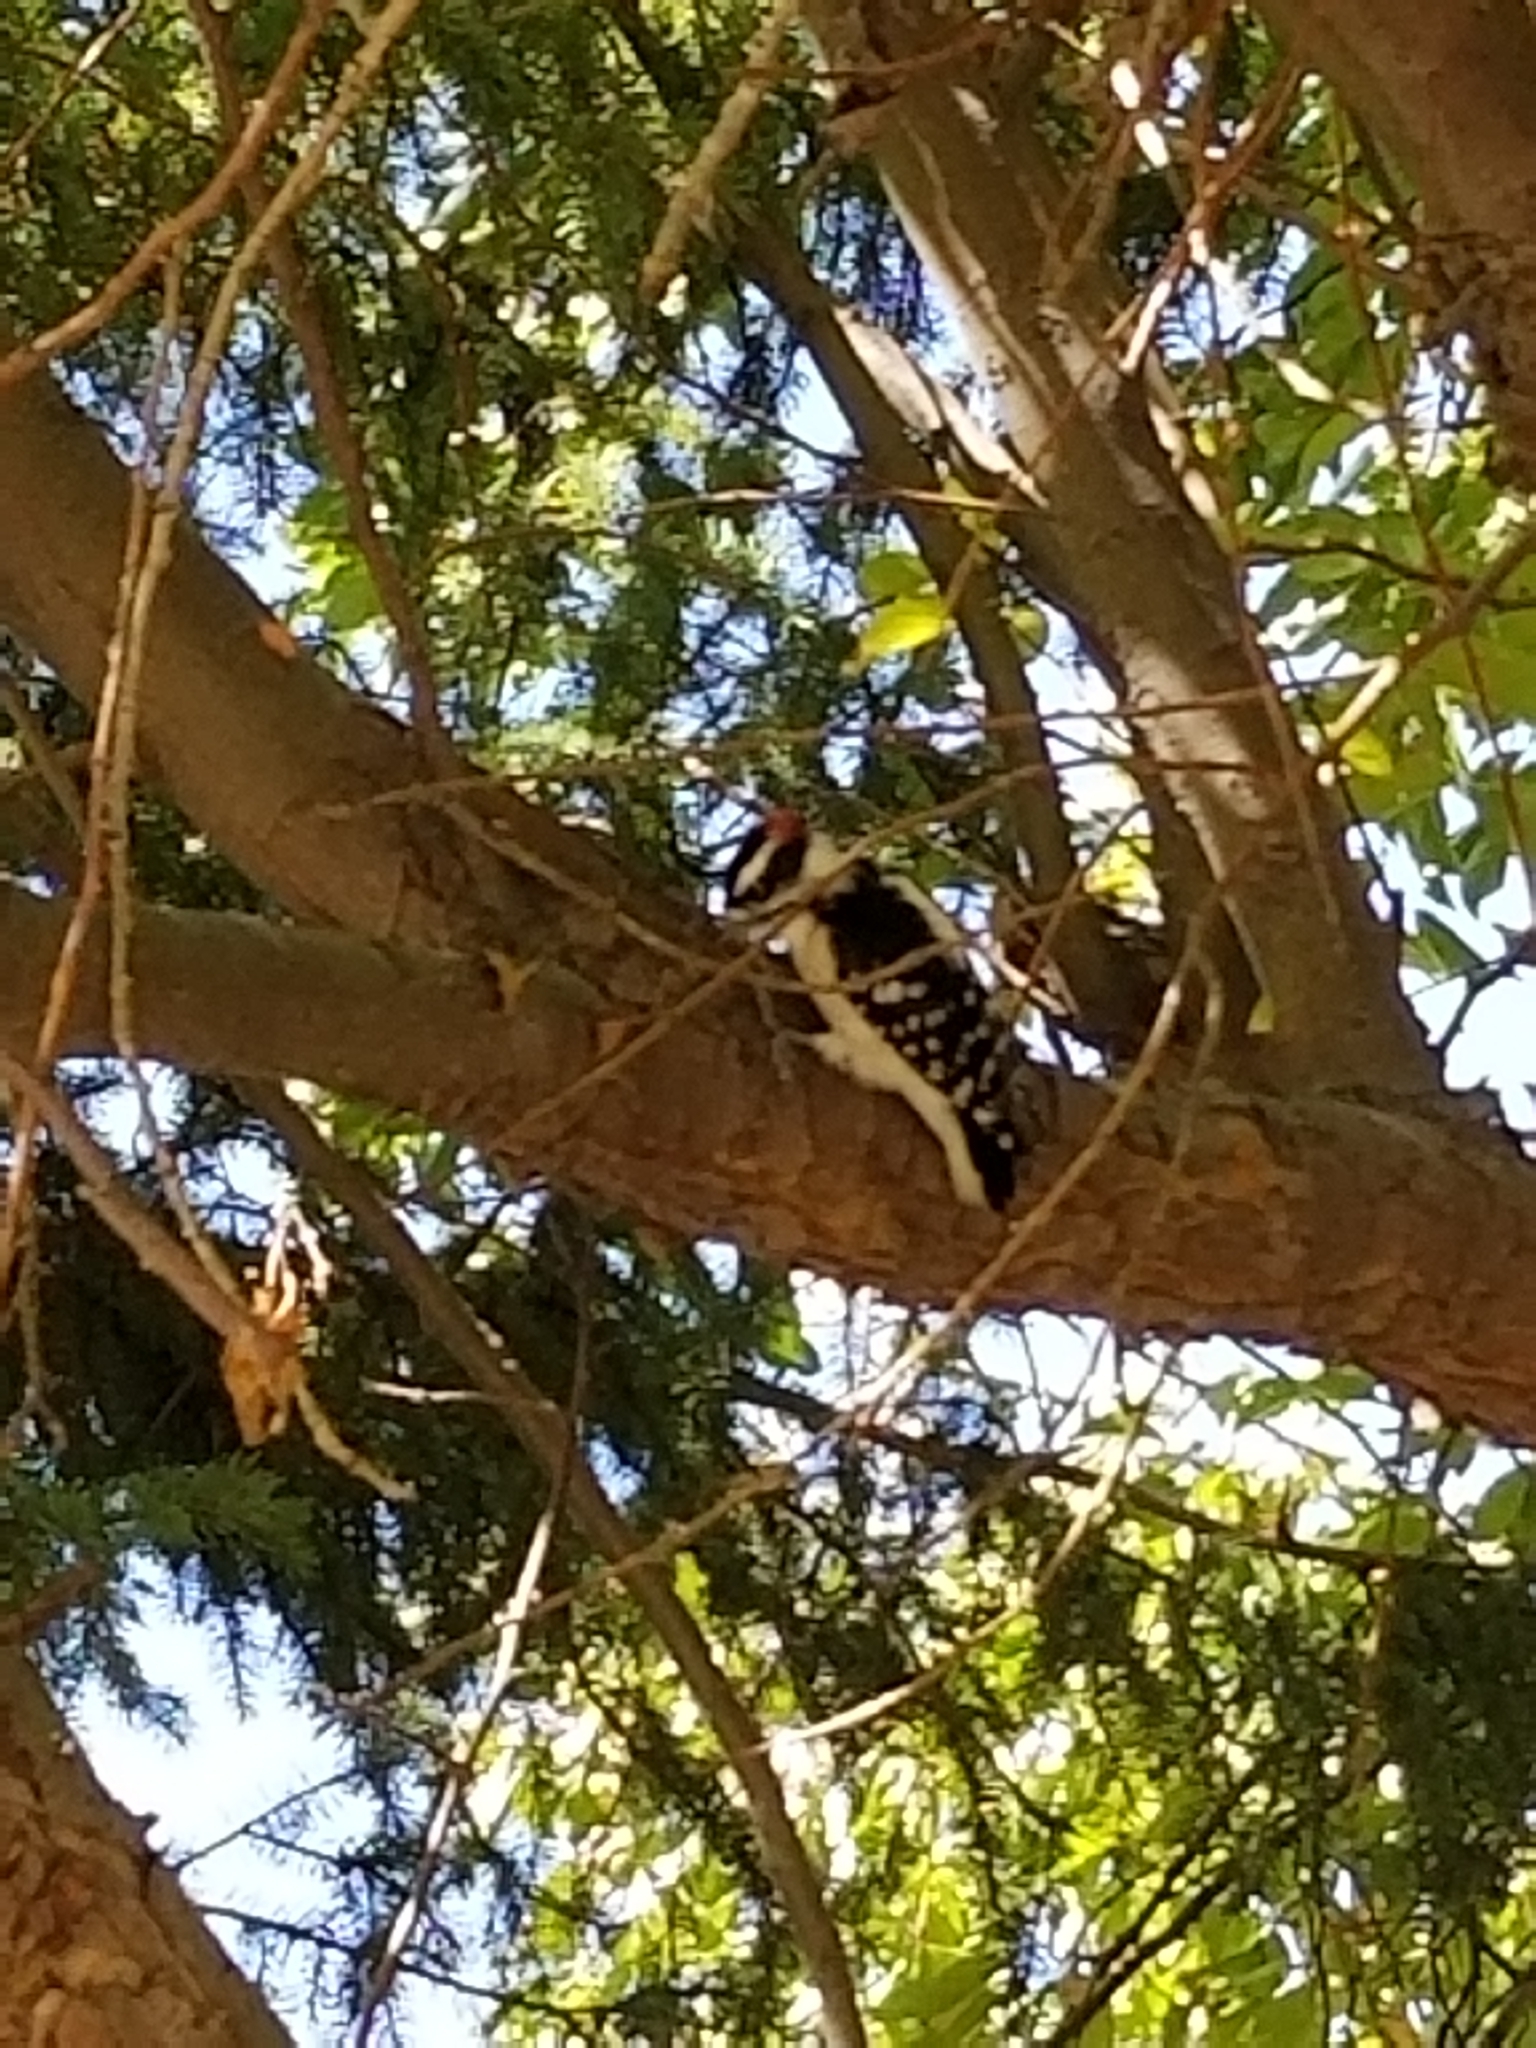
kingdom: Animalia
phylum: Chordata
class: Aves
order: Piciformes
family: Picidae
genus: Dryobates
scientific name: Dryobates pubescens
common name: Downy woodpecker
